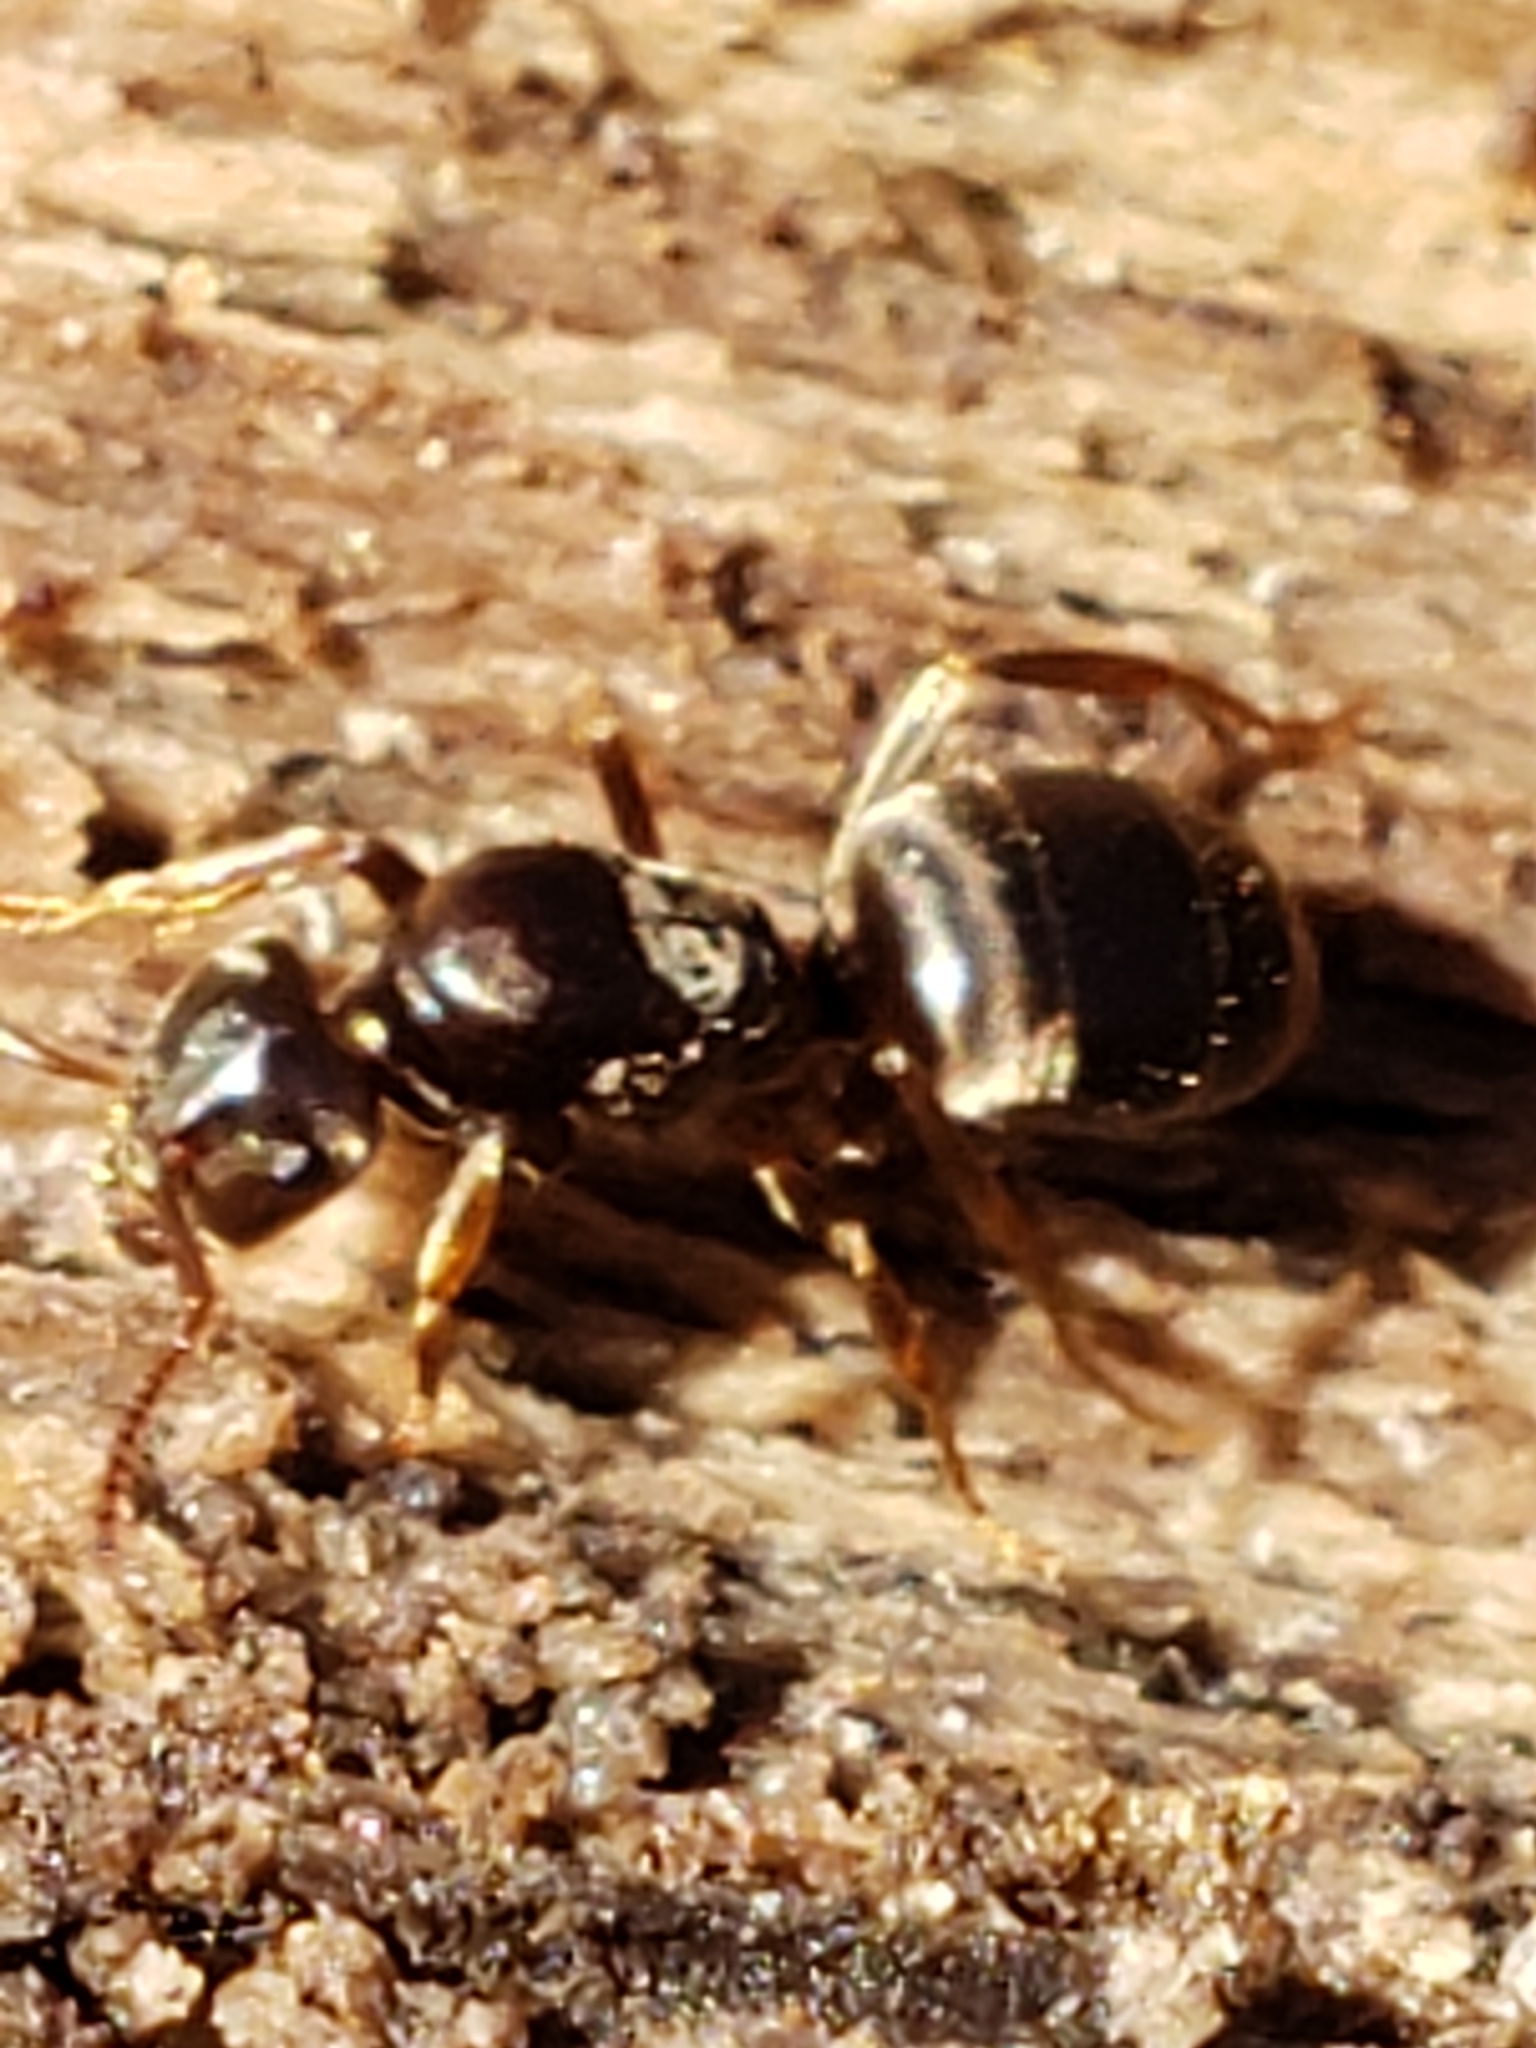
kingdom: Animalia
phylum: Arthropoda
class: Insecta
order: Hymenoptera
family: Formicidae
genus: Lasius
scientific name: Lasius aphidicola
